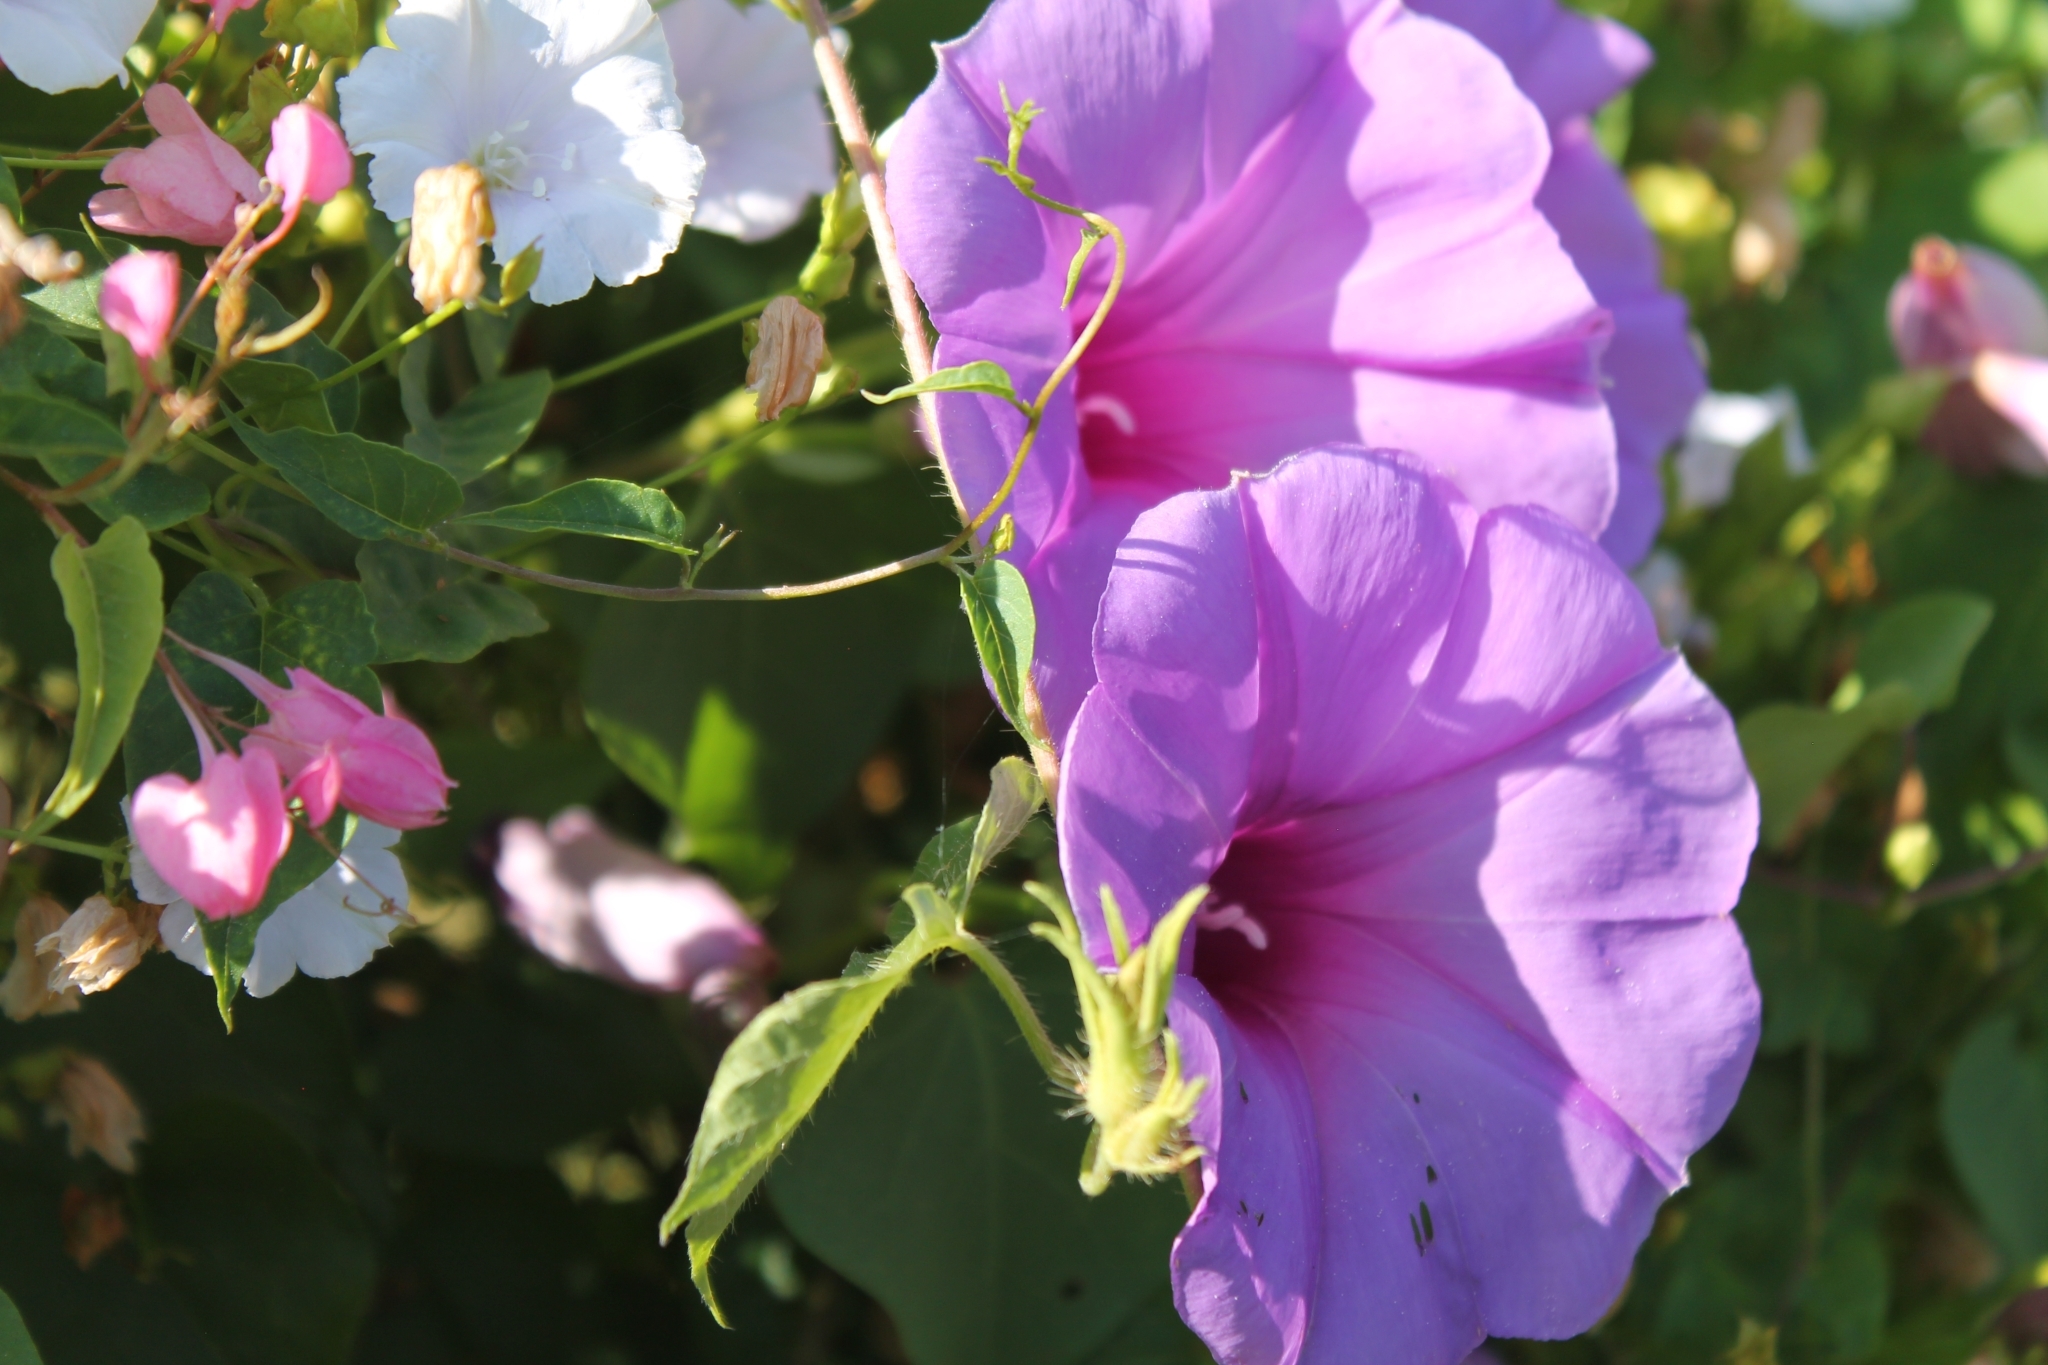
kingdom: Plantae
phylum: Tracheophyta
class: Magnoliopsida
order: Solanales
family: Convolvulaceae
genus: Ipomoea
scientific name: Ipomoea pedicellaris
